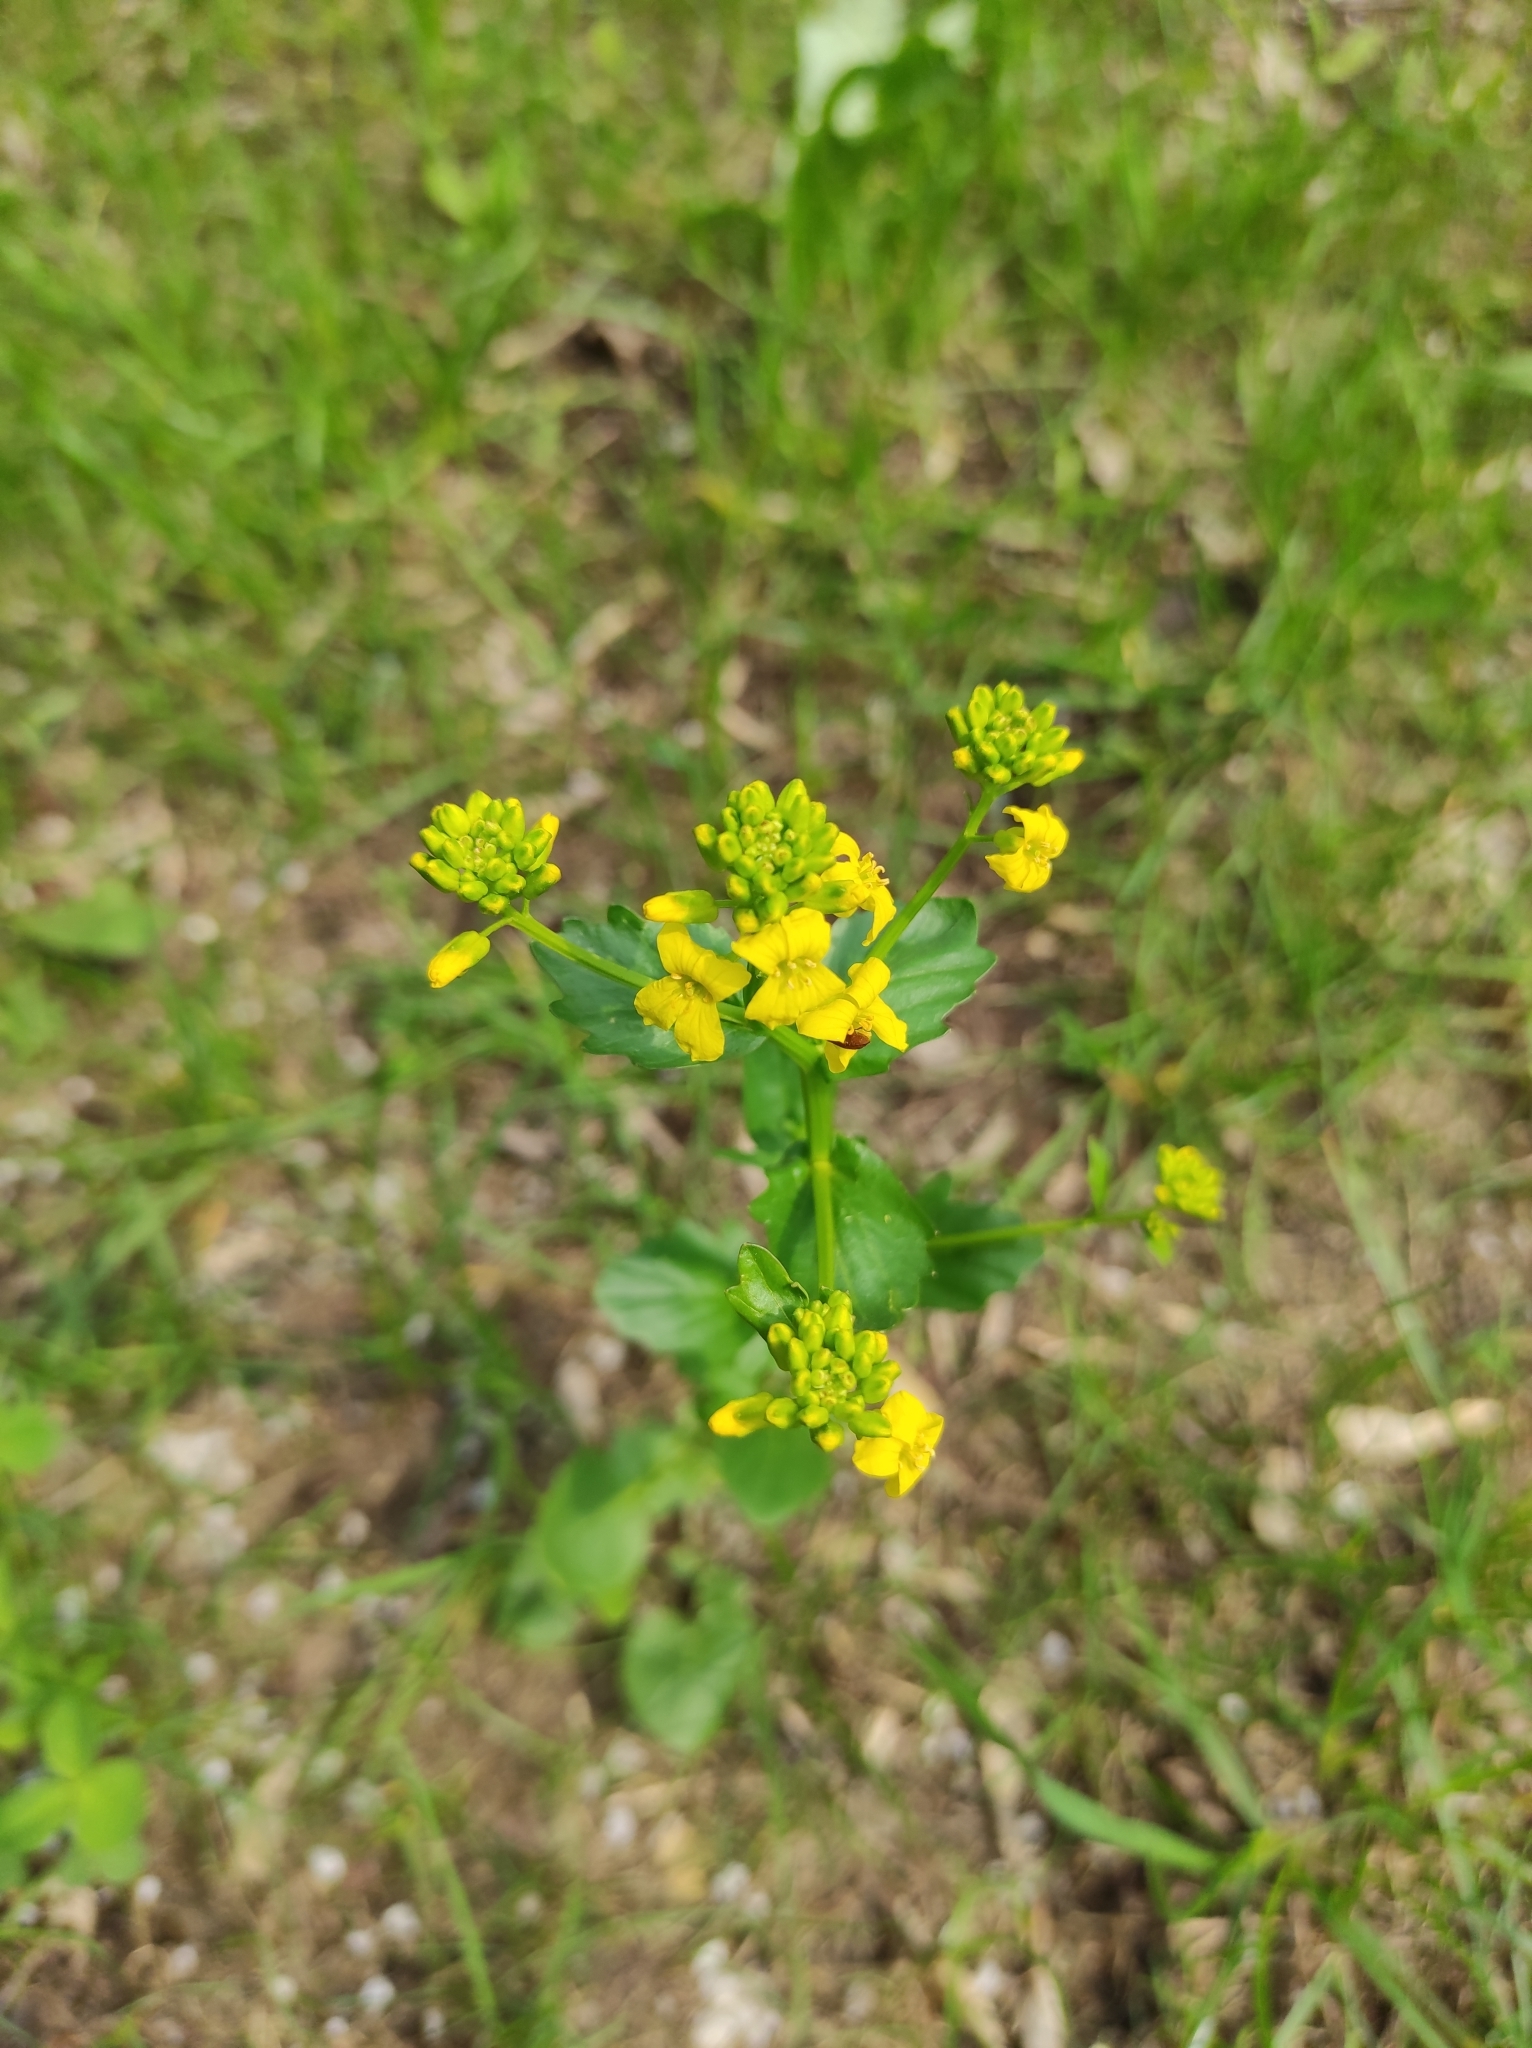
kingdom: Plantae
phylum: Tracheophyta
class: Magnoliopsida
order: Brassicales
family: Brassicaceae
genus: Barbarea
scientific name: Barbarea vulgaris
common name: Cressy-greens
